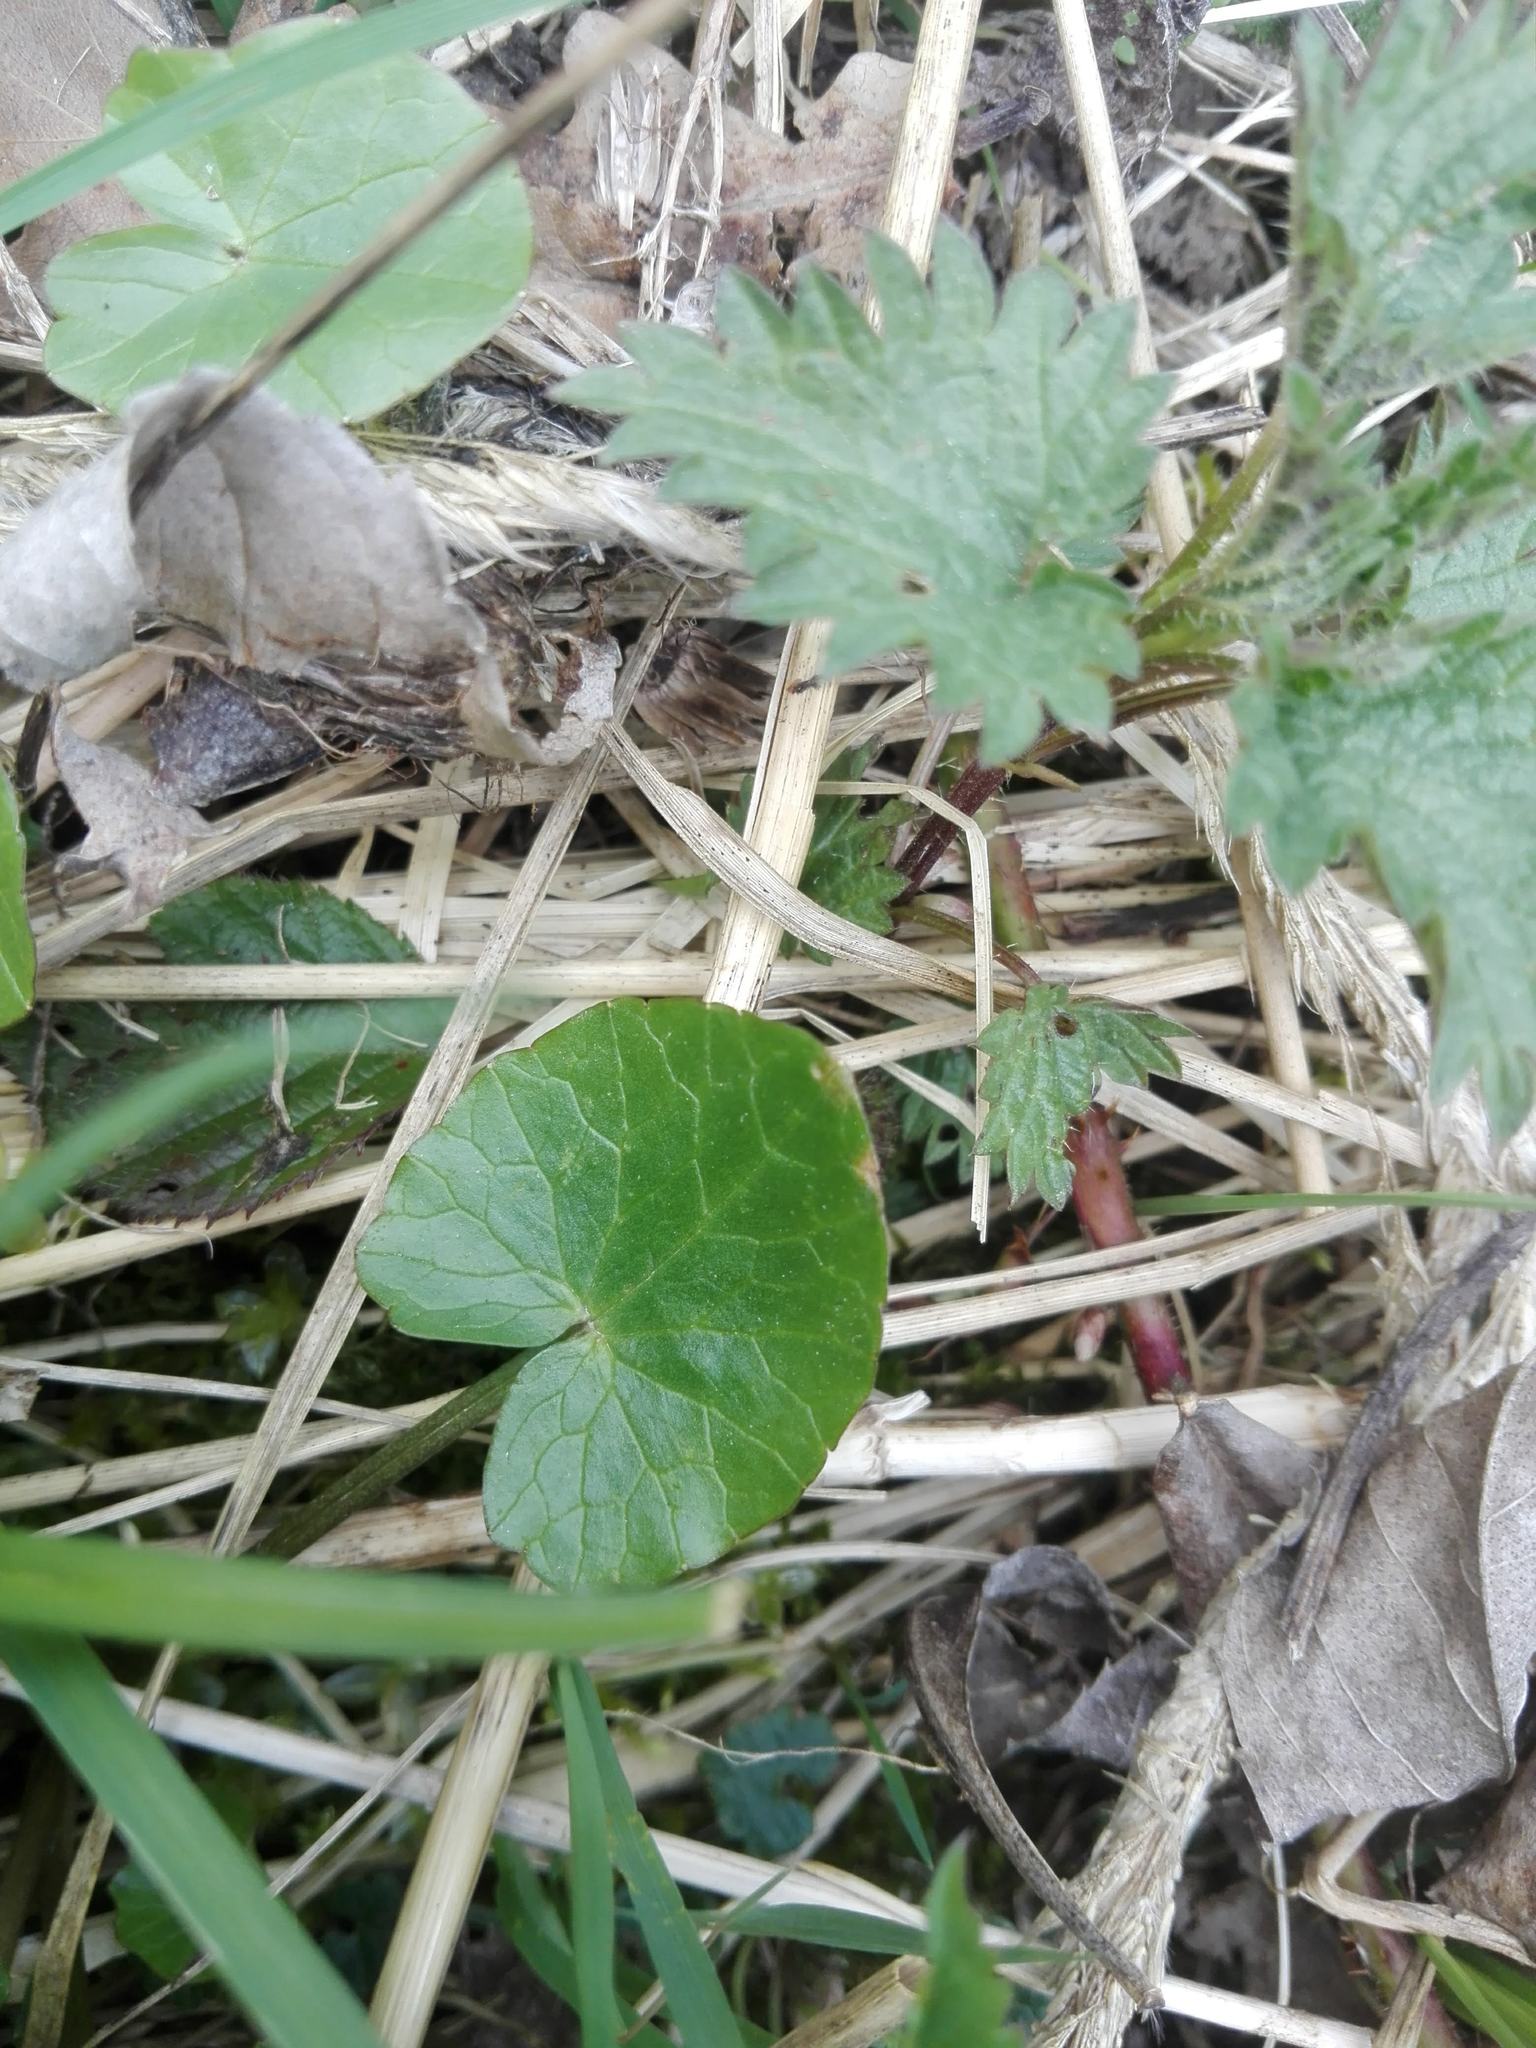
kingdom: Plantae
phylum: Tracheophyta
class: Magnoliopsida
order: Ranunculales
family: Ranunculaceae
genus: Ficaria
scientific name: Ficaria verna
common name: Lesser celandine
